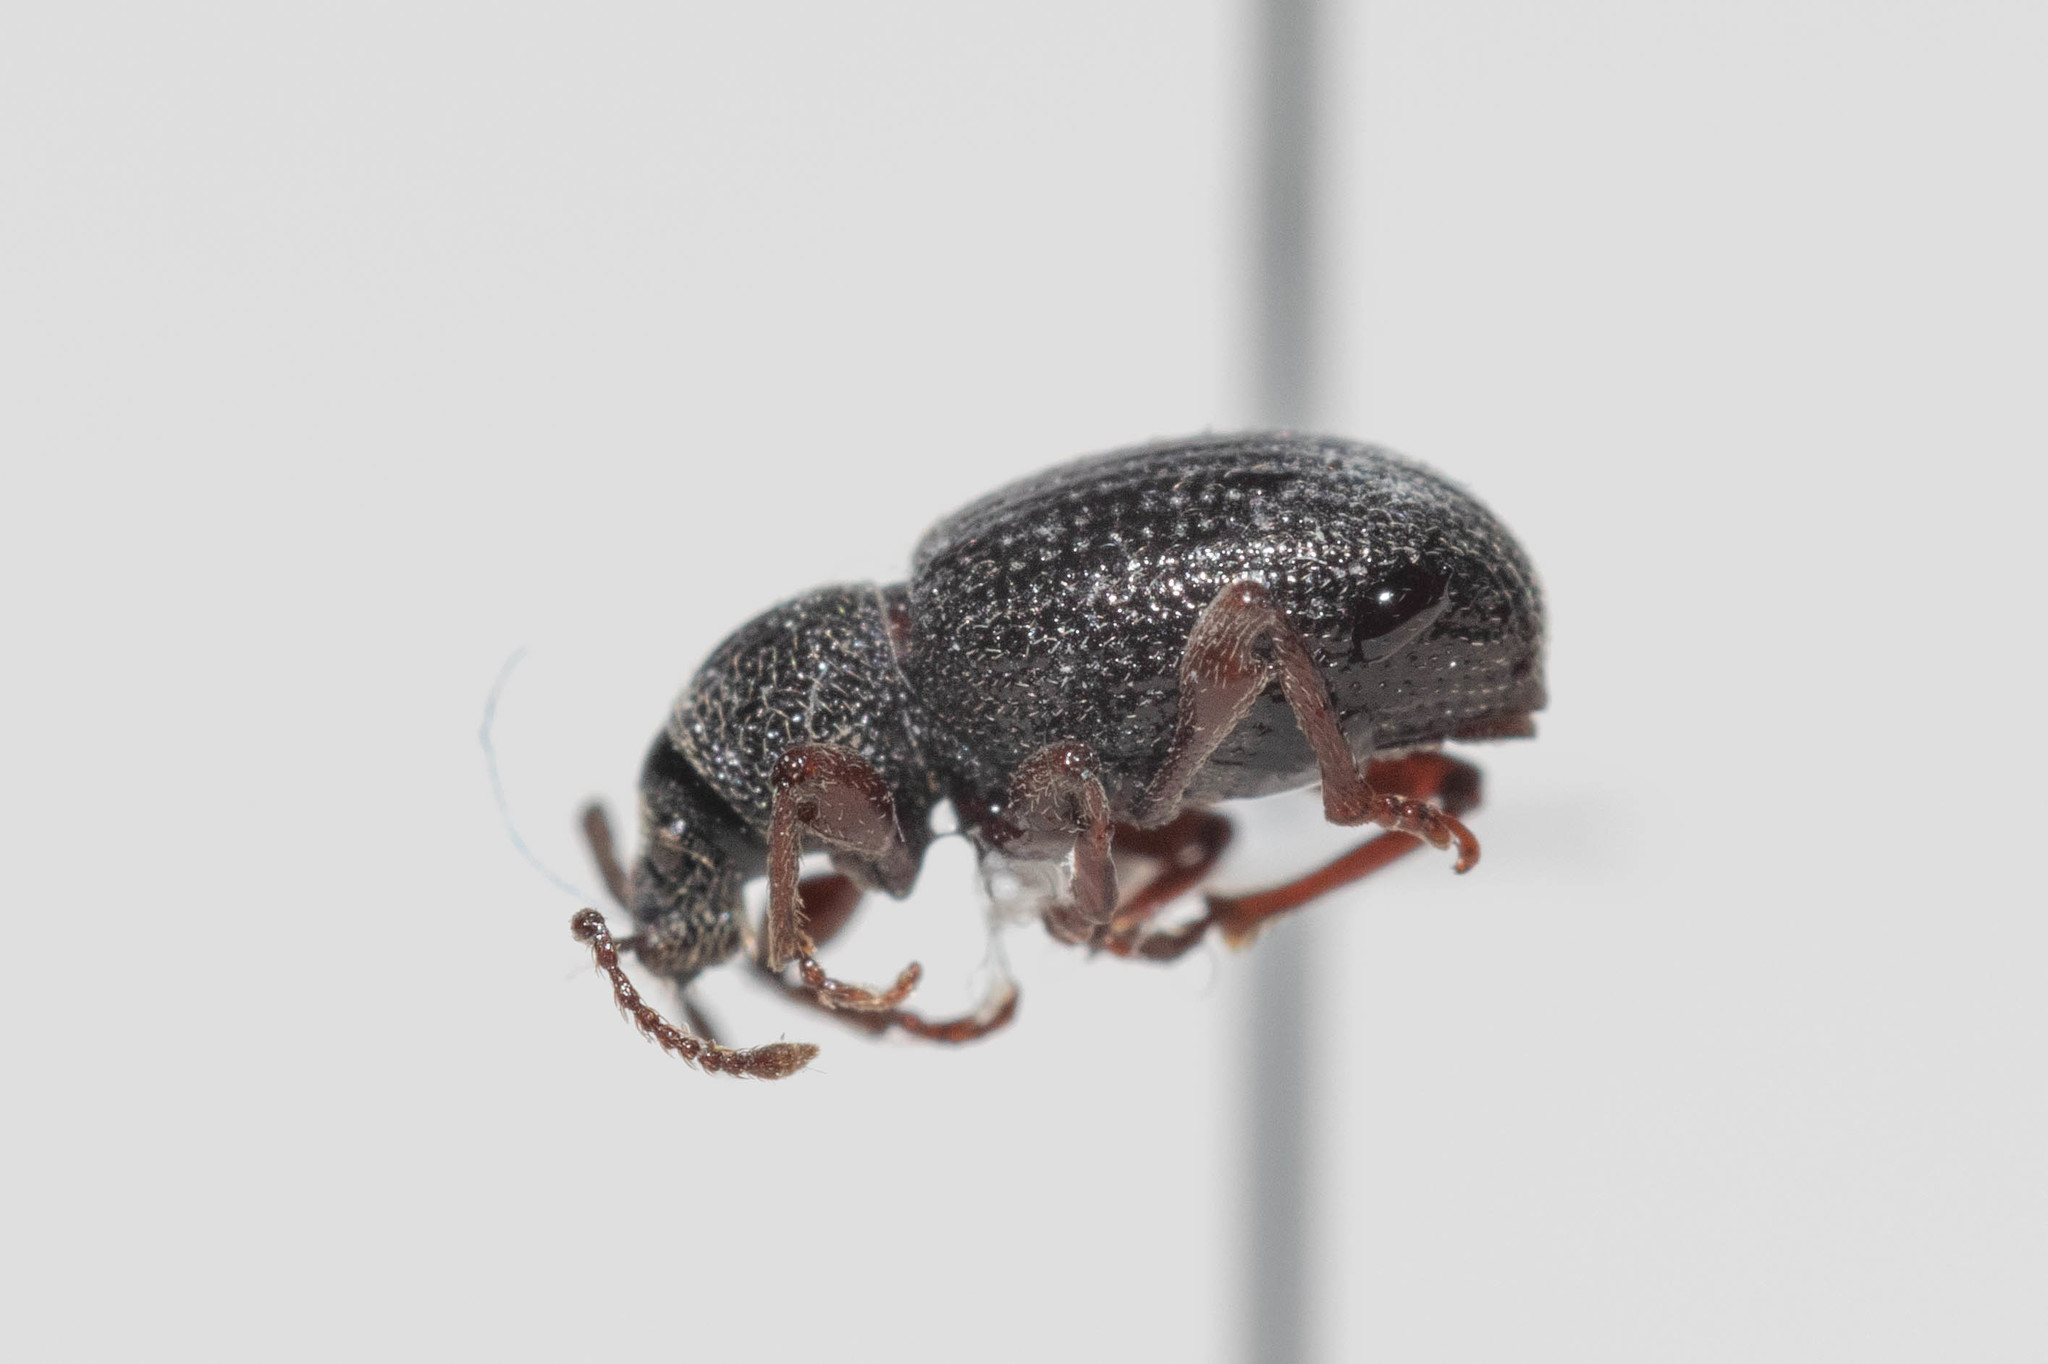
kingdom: Animalia
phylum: Arthropoda
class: Insecta
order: Coleoptera
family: Curculionidae
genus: Otiorhynchus
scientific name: Otiorhynchus ovatus
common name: Strawberry root weevil
